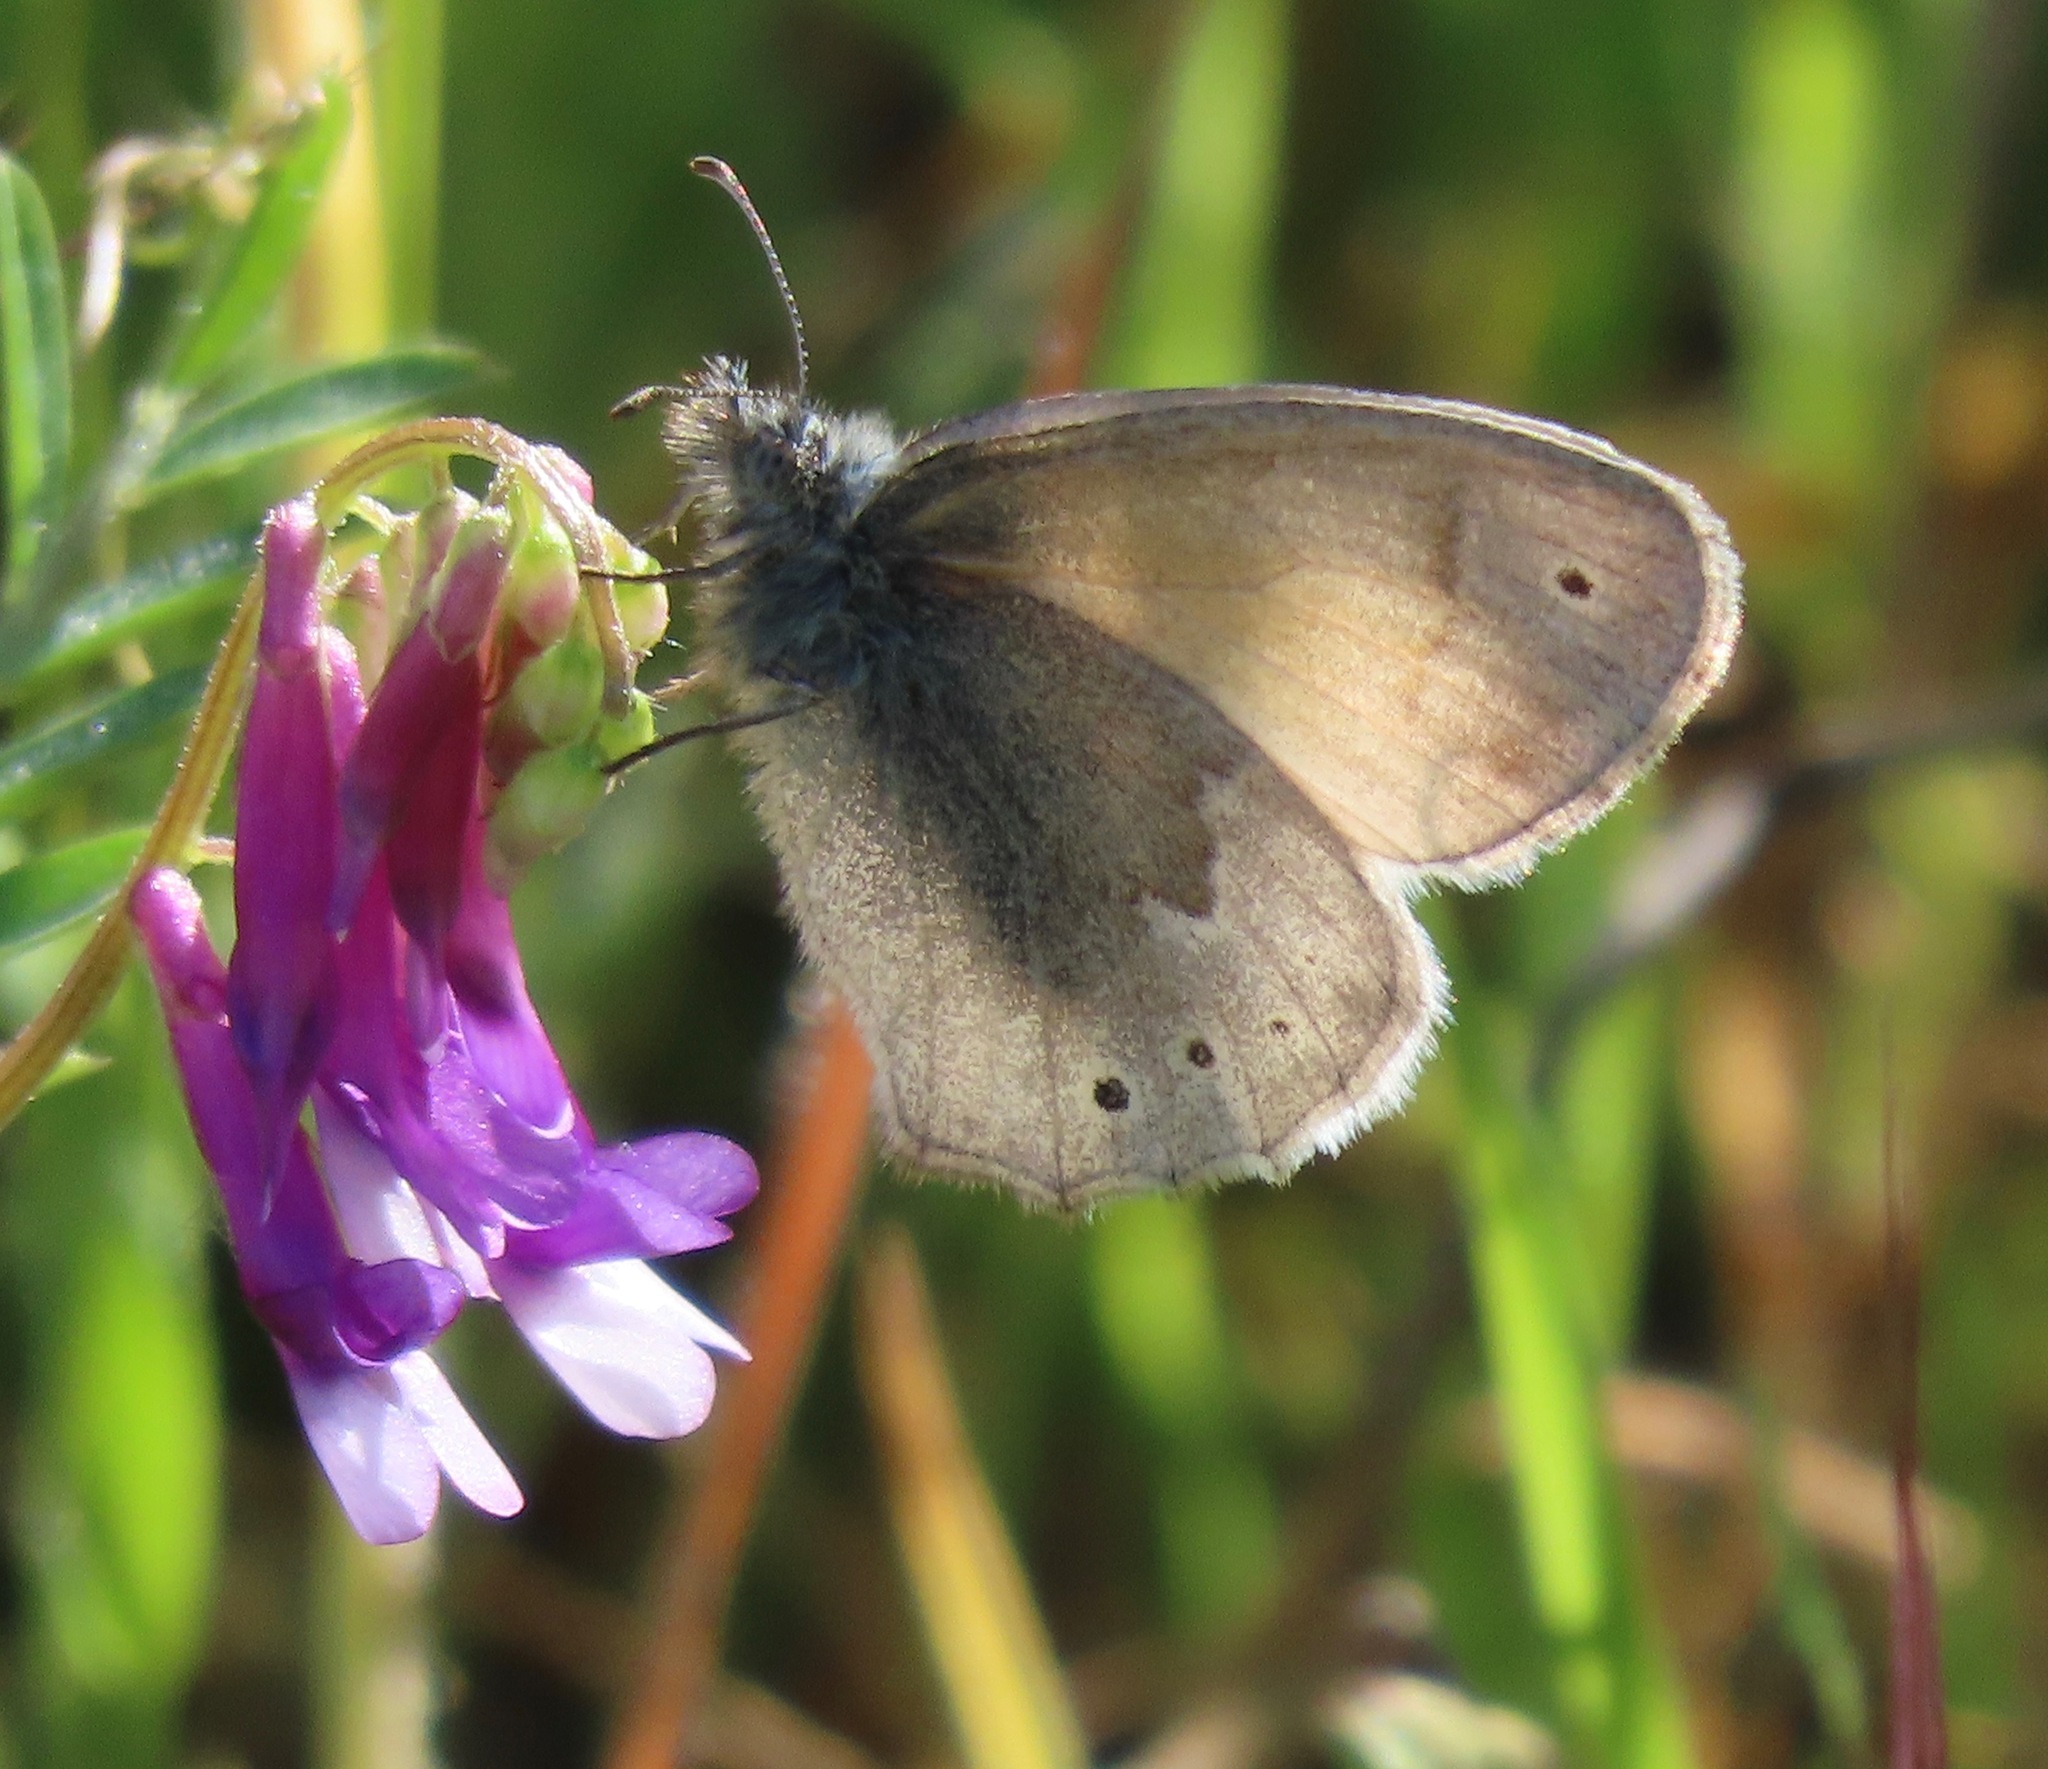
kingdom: Animalia
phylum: Arthropoda
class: Insecta
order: Lepidoptera
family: Nymphalidae
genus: Coenonympha
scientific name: Coenonympha california
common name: Common ringlet
